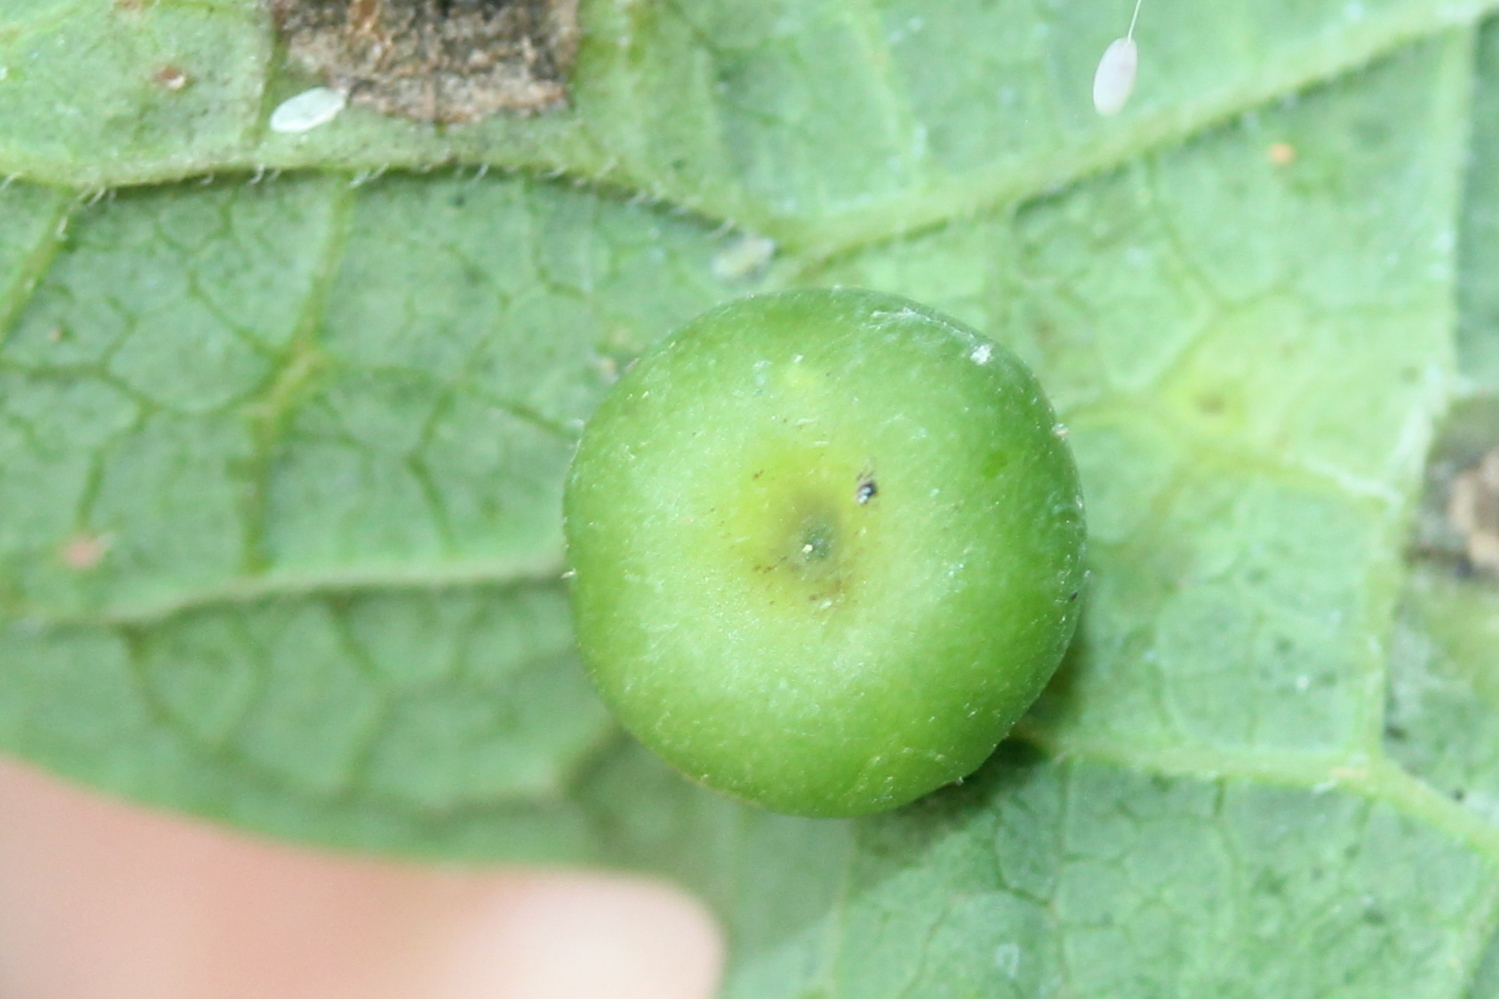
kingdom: Animalia
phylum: Arthropoda
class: Insecta
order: Hemiptera
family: Aphalaridae
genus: Pachypsylla
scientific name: Pachypsylla celtidismamma
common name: Hackberry nipplegall psyllid
